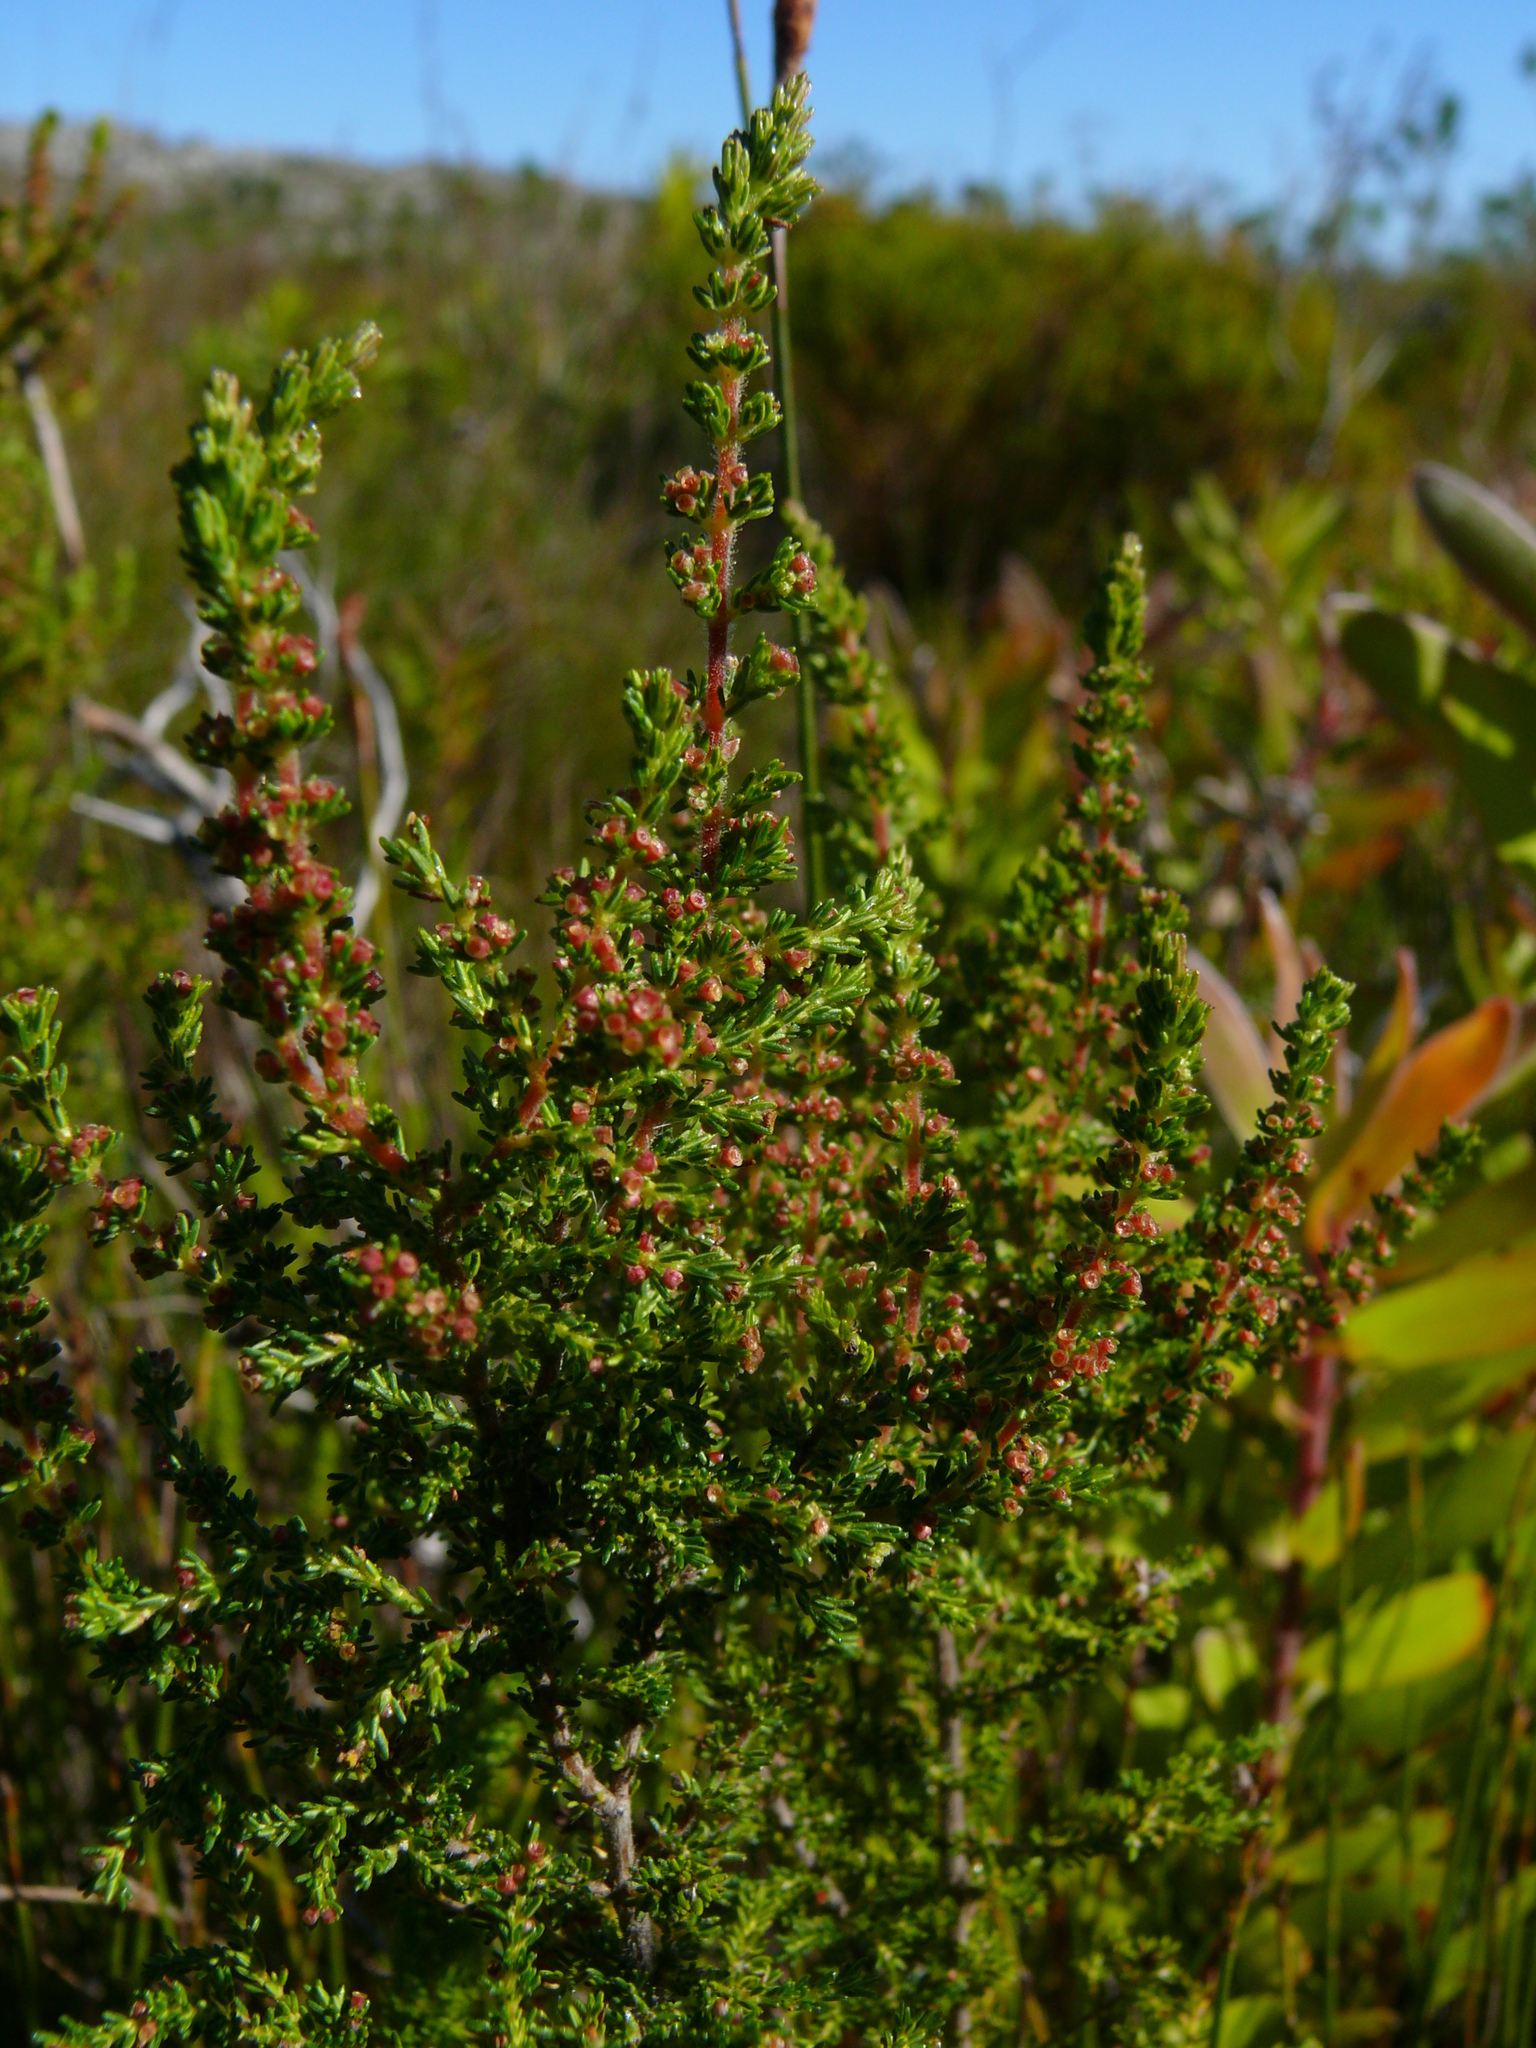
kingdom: Plantae
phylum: Tracheophyta
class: Magnoliopsida
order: Ericales
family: Ericaceae
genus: Erica
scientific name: Erica muscosa
